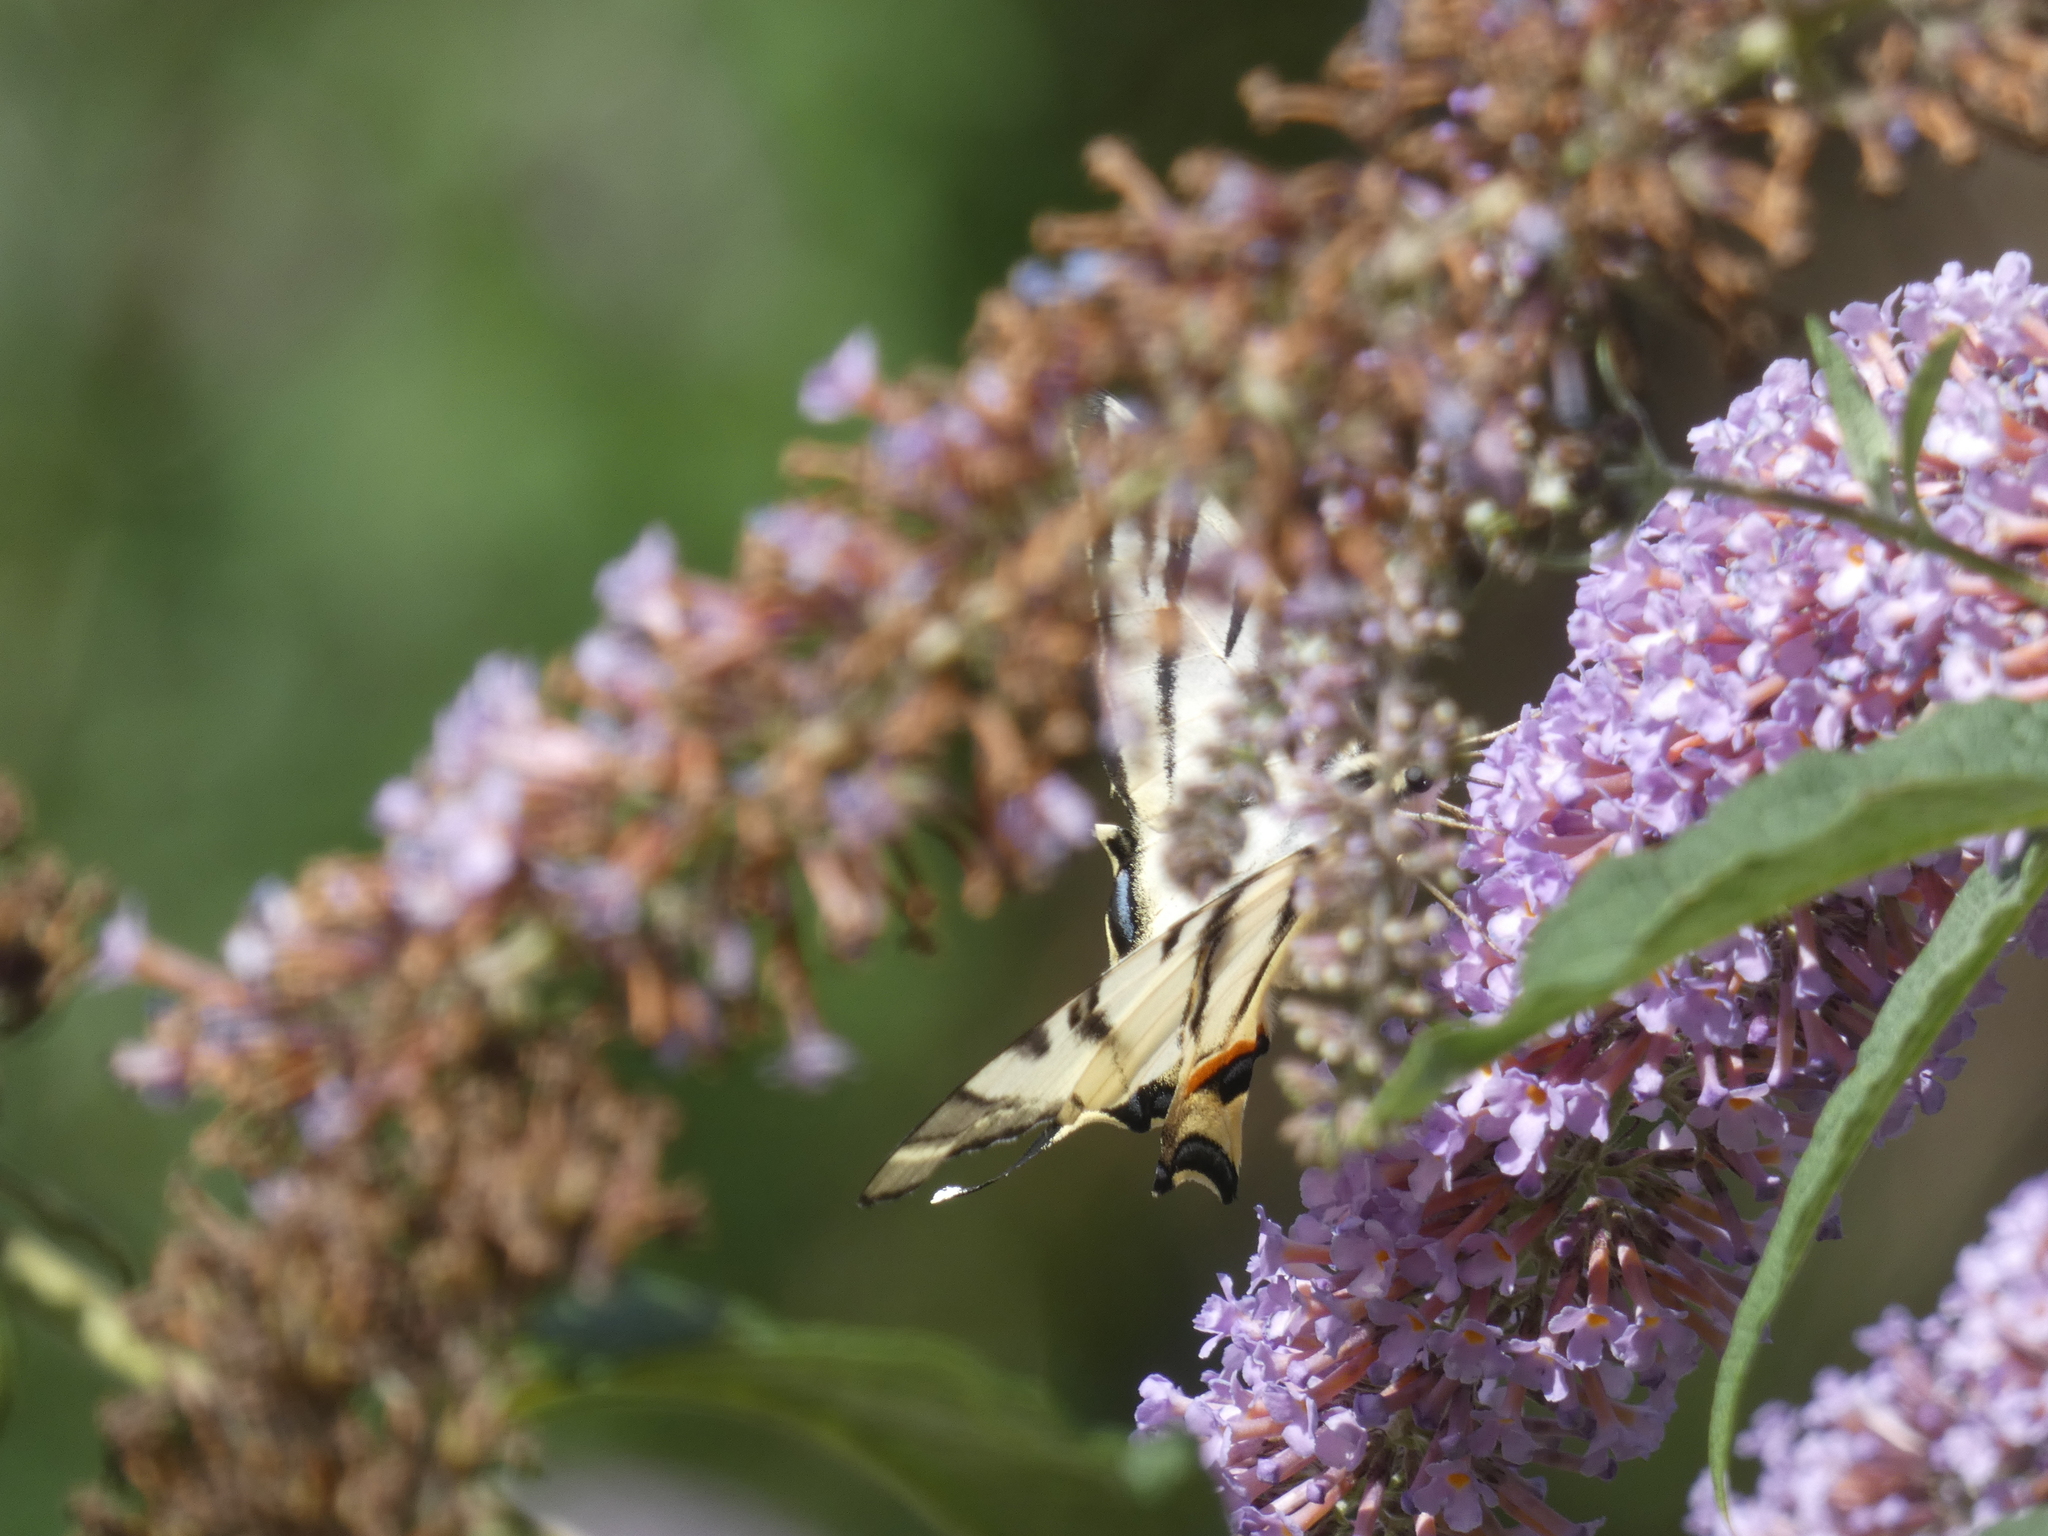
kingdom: Animalia
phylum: Arthropoda
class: Insecta
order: Lepidoptera
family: Papilionidae
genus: Iphiclides
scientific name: Iphiclides podalirius
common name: Scarce swallowtail
